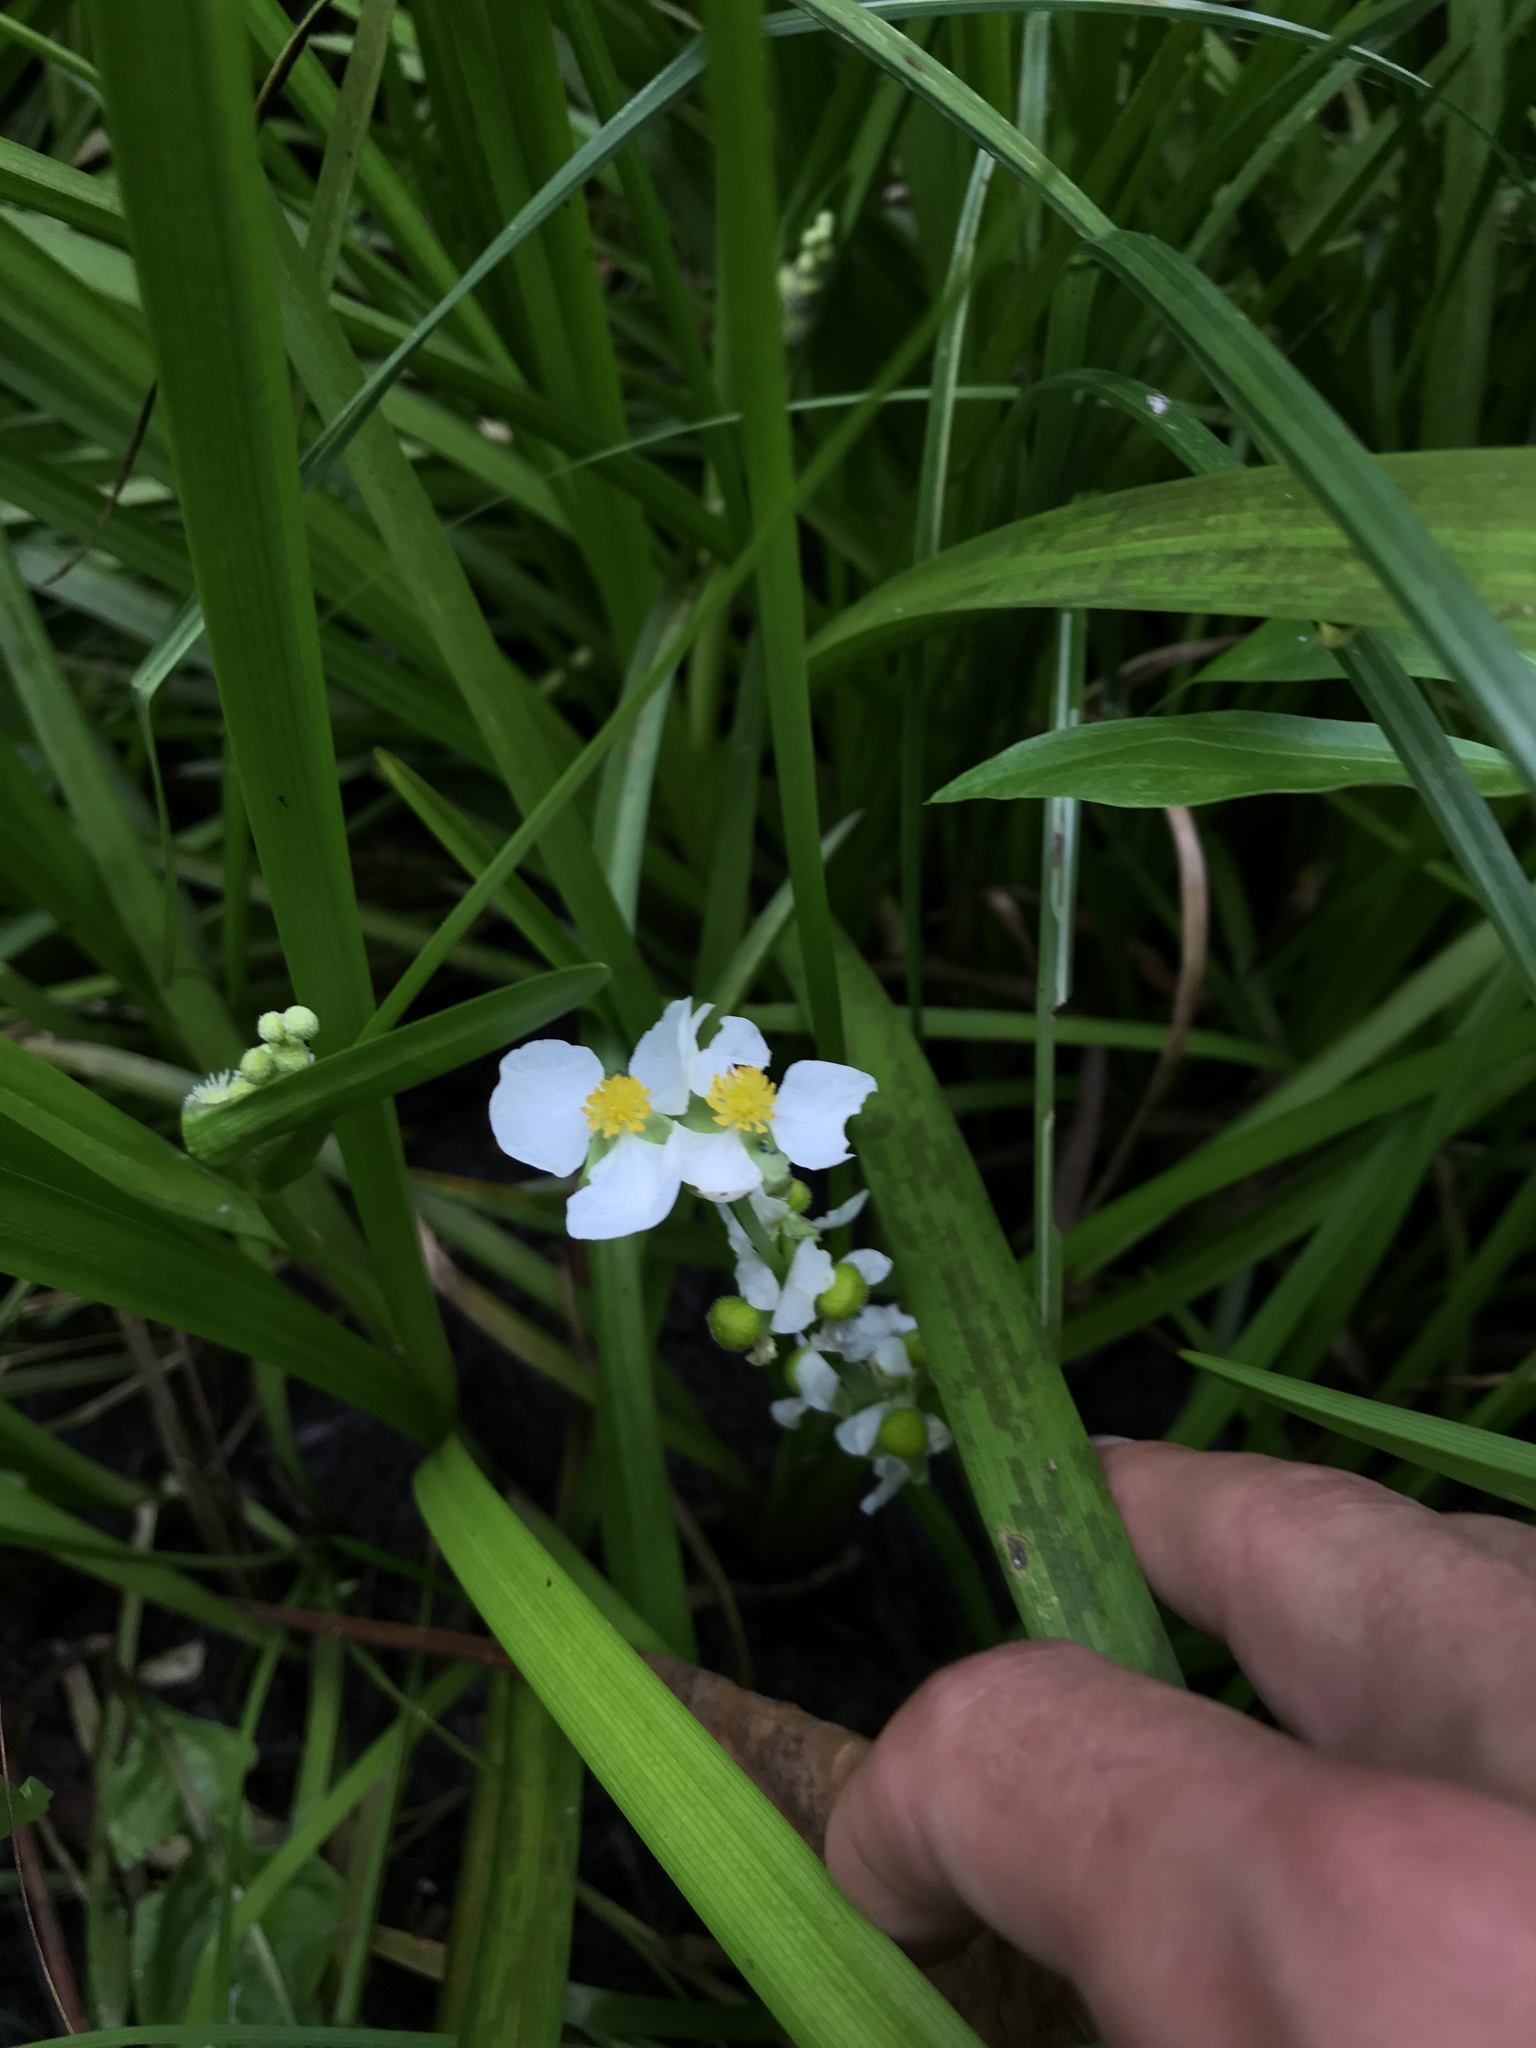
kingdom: Plantae
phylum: Tracheophyta
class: Liliopsida
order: Alismatales
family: Alismataceae
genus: Sagittaria
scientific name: Sagittaria latifolia
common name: Duck-potato
